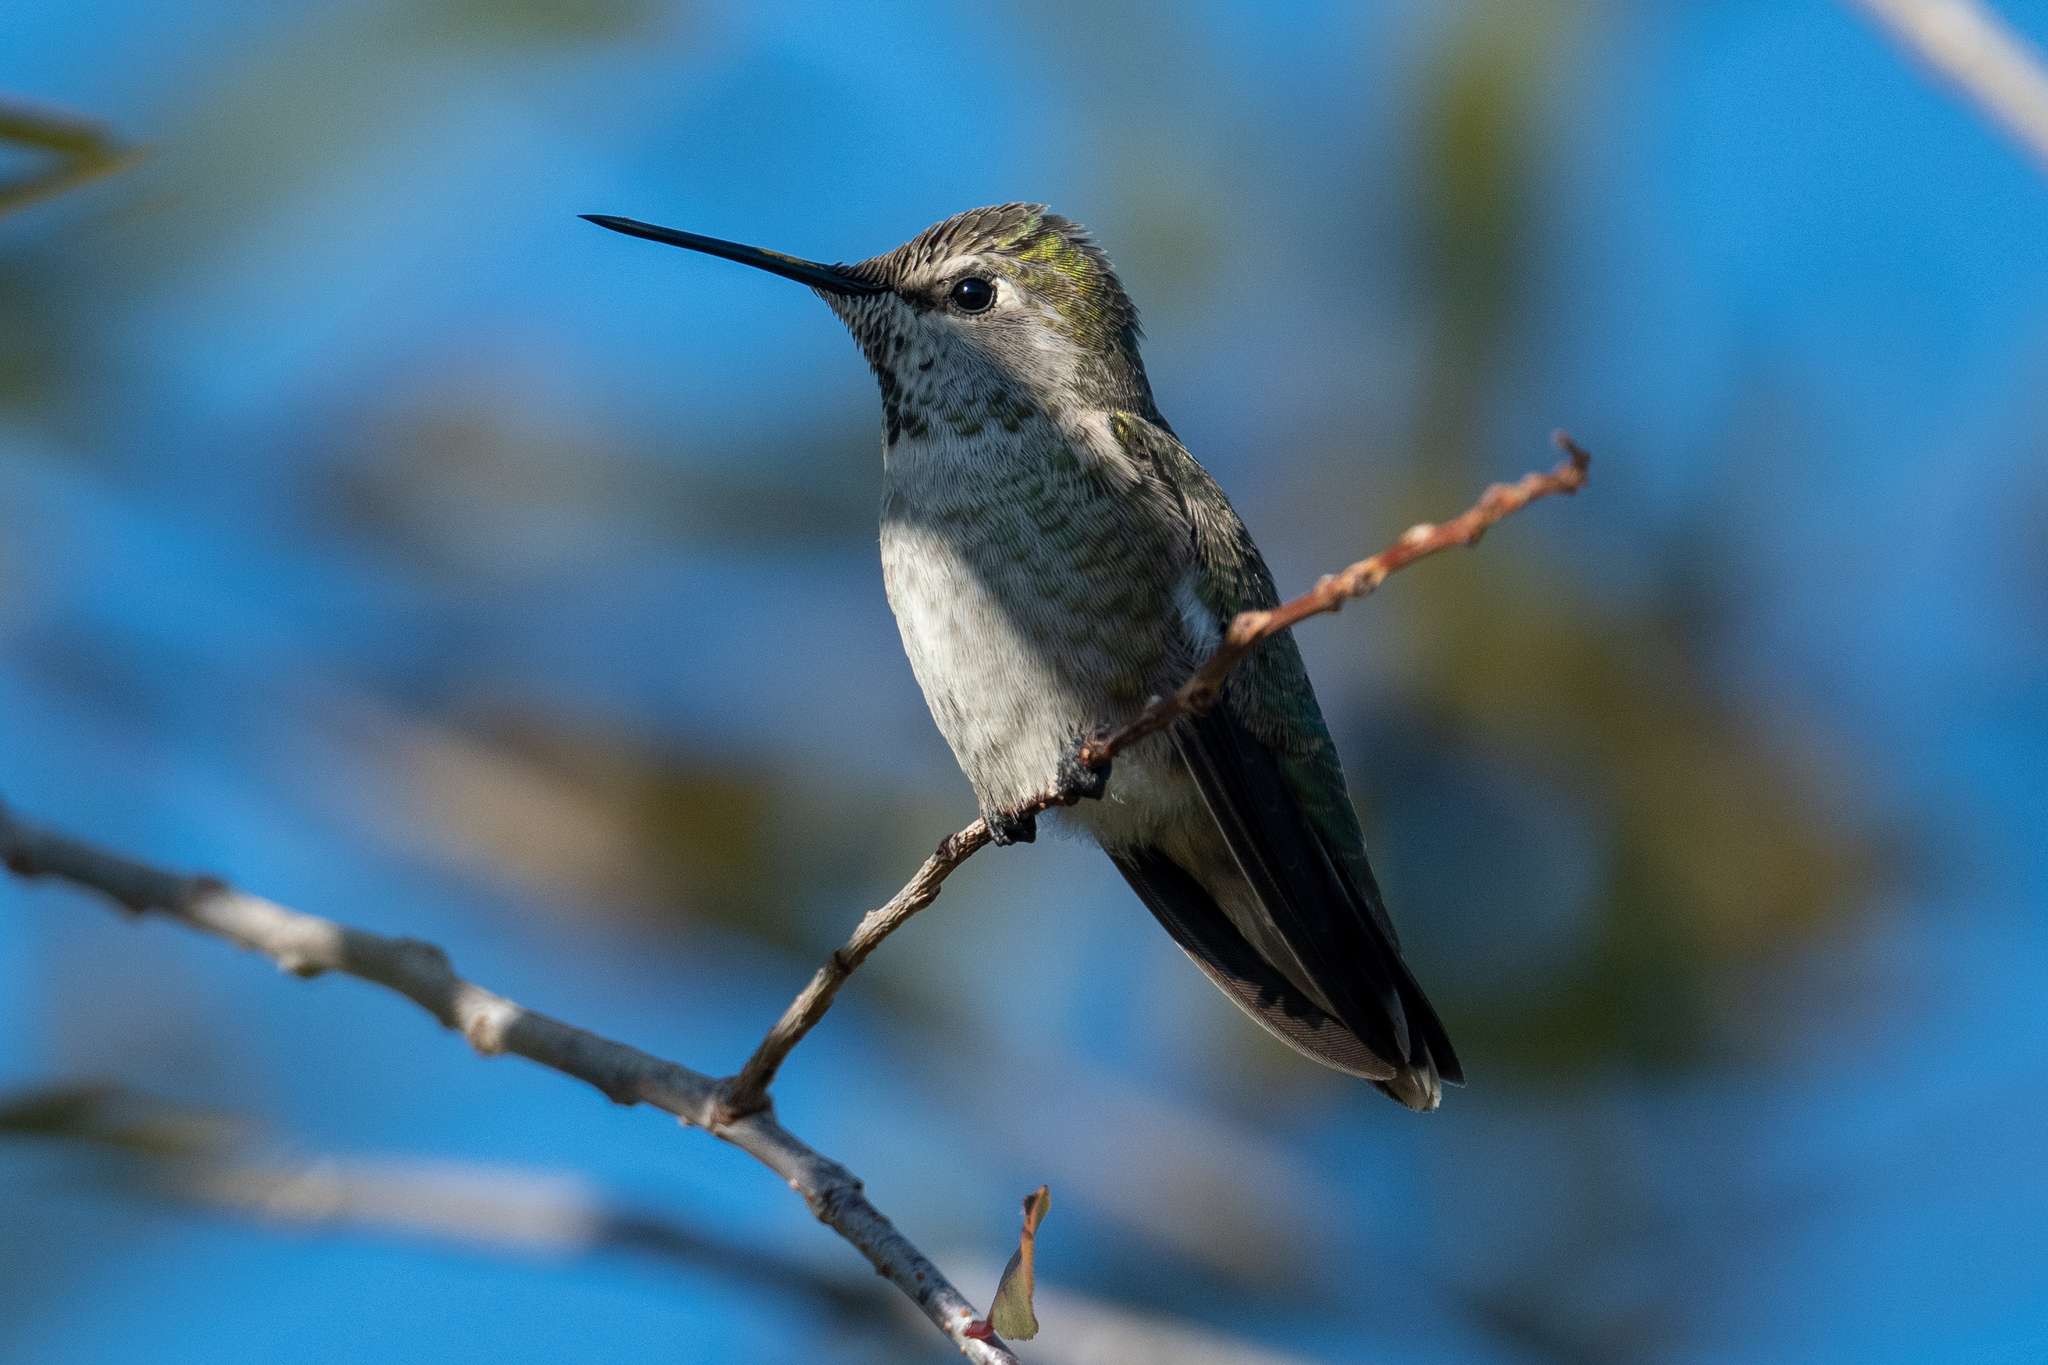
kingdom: Animalia
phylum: Chordata
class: Aves
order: Apodiformes
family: Trochilidae
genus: Calypte
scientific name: Calypte anna
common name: Anna's hummingbird
